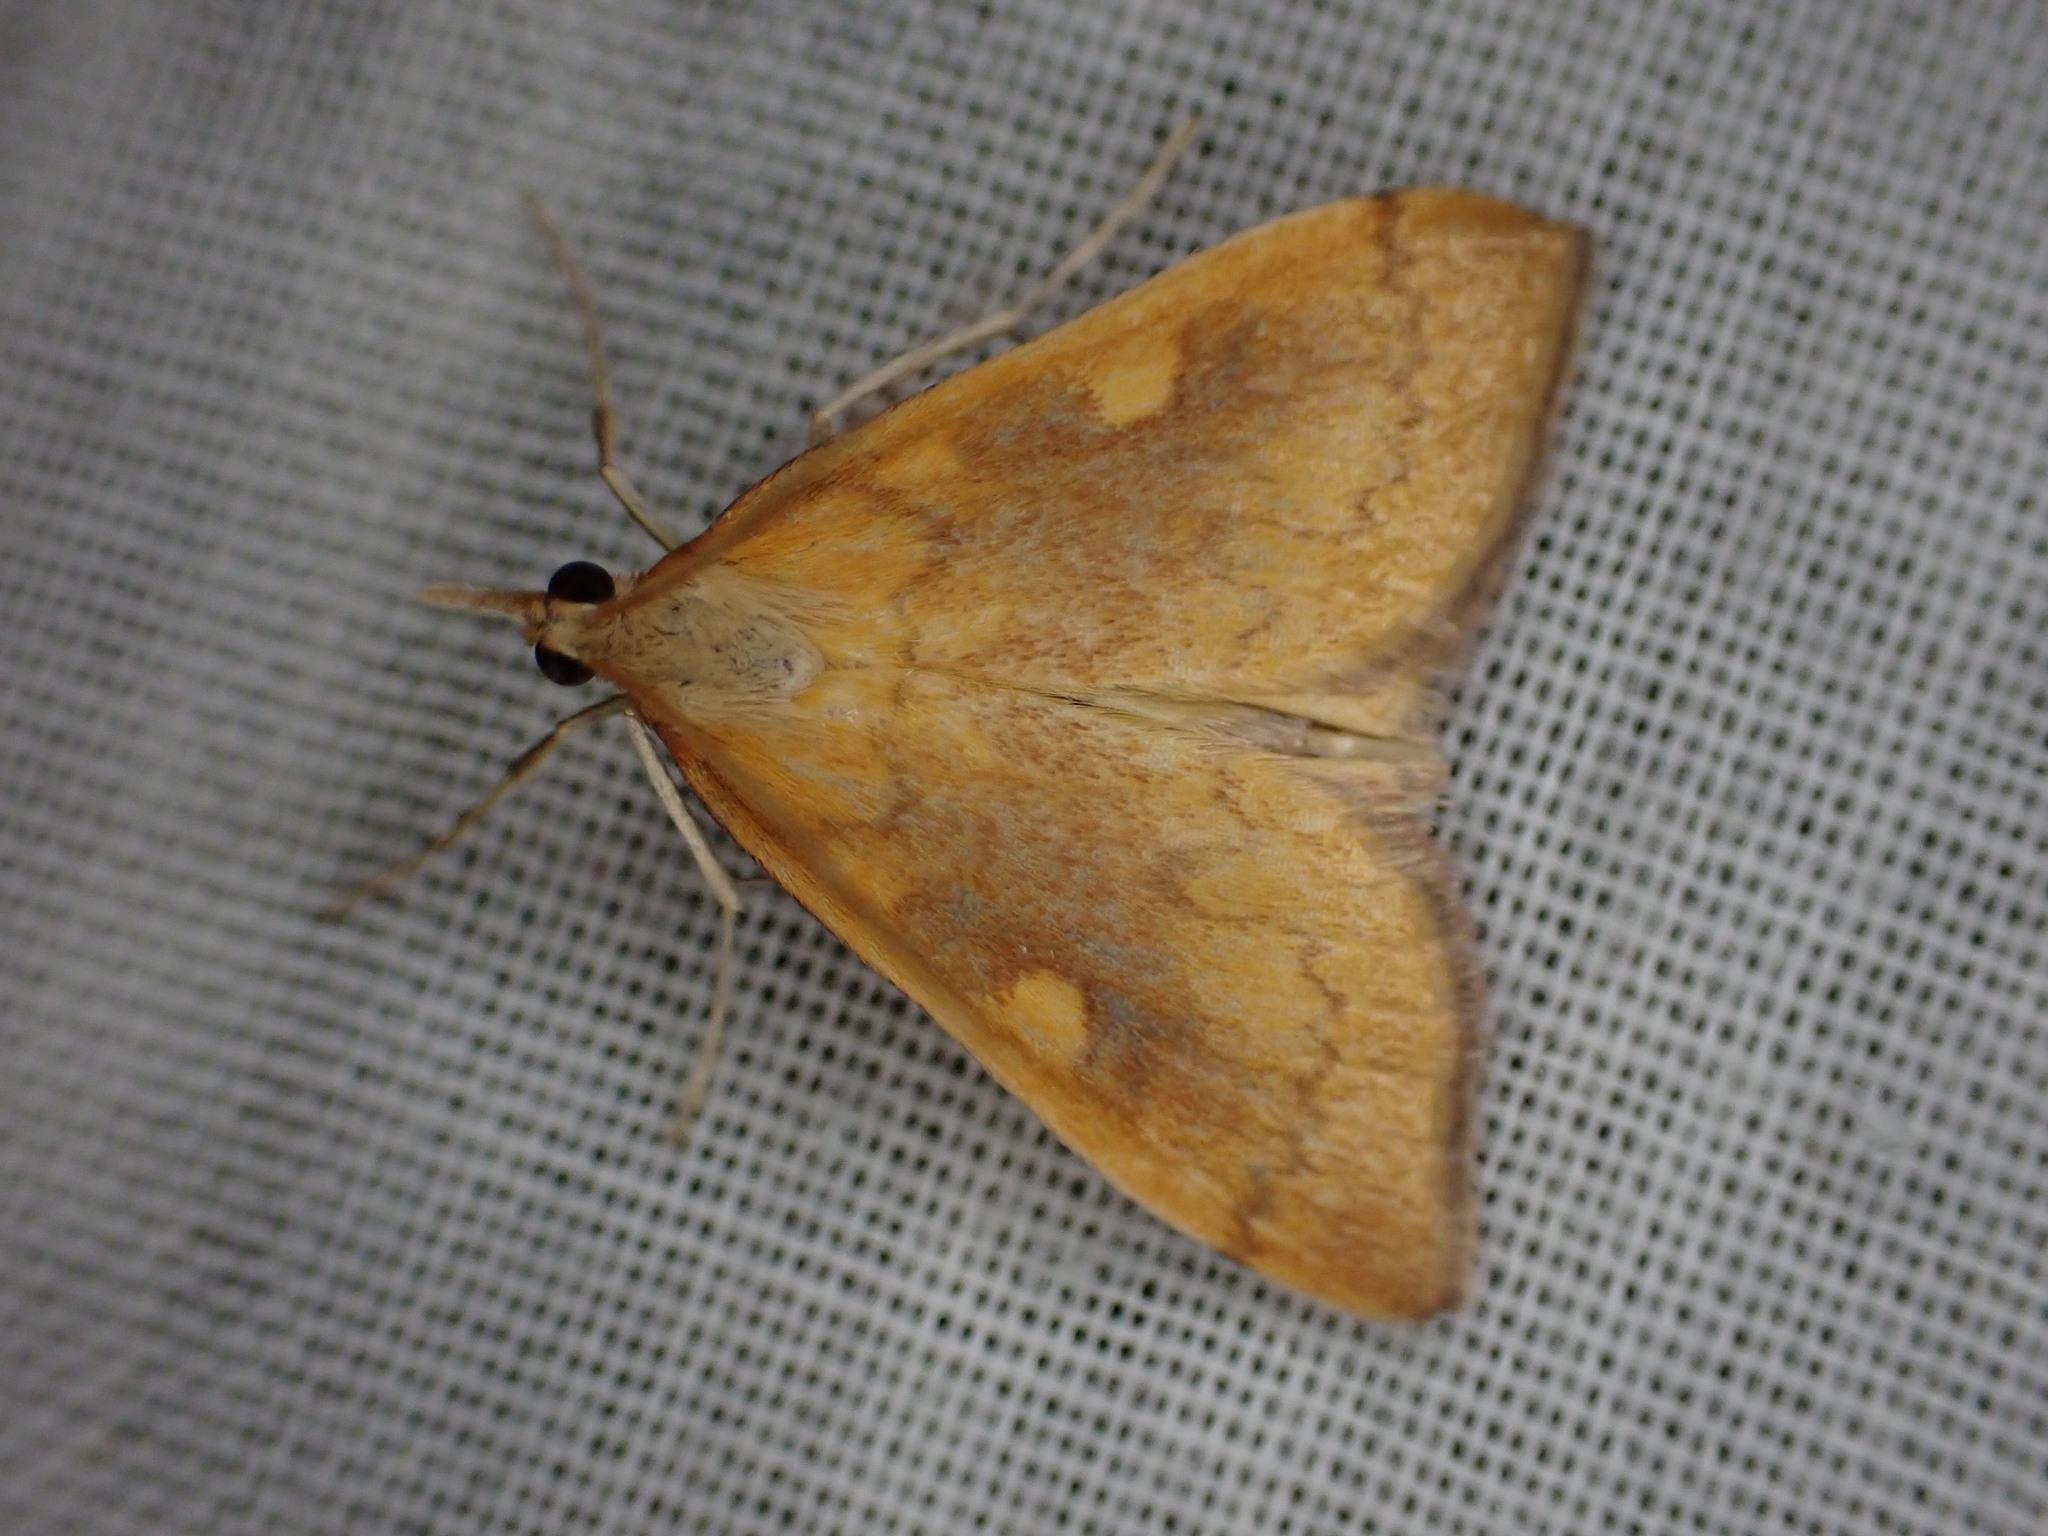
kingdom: Animalia
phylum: Arthropoda
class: Insecta
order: Lepidoptera
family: Crambidae
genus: Udea
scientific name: Udea Mnesictena flavidalis
